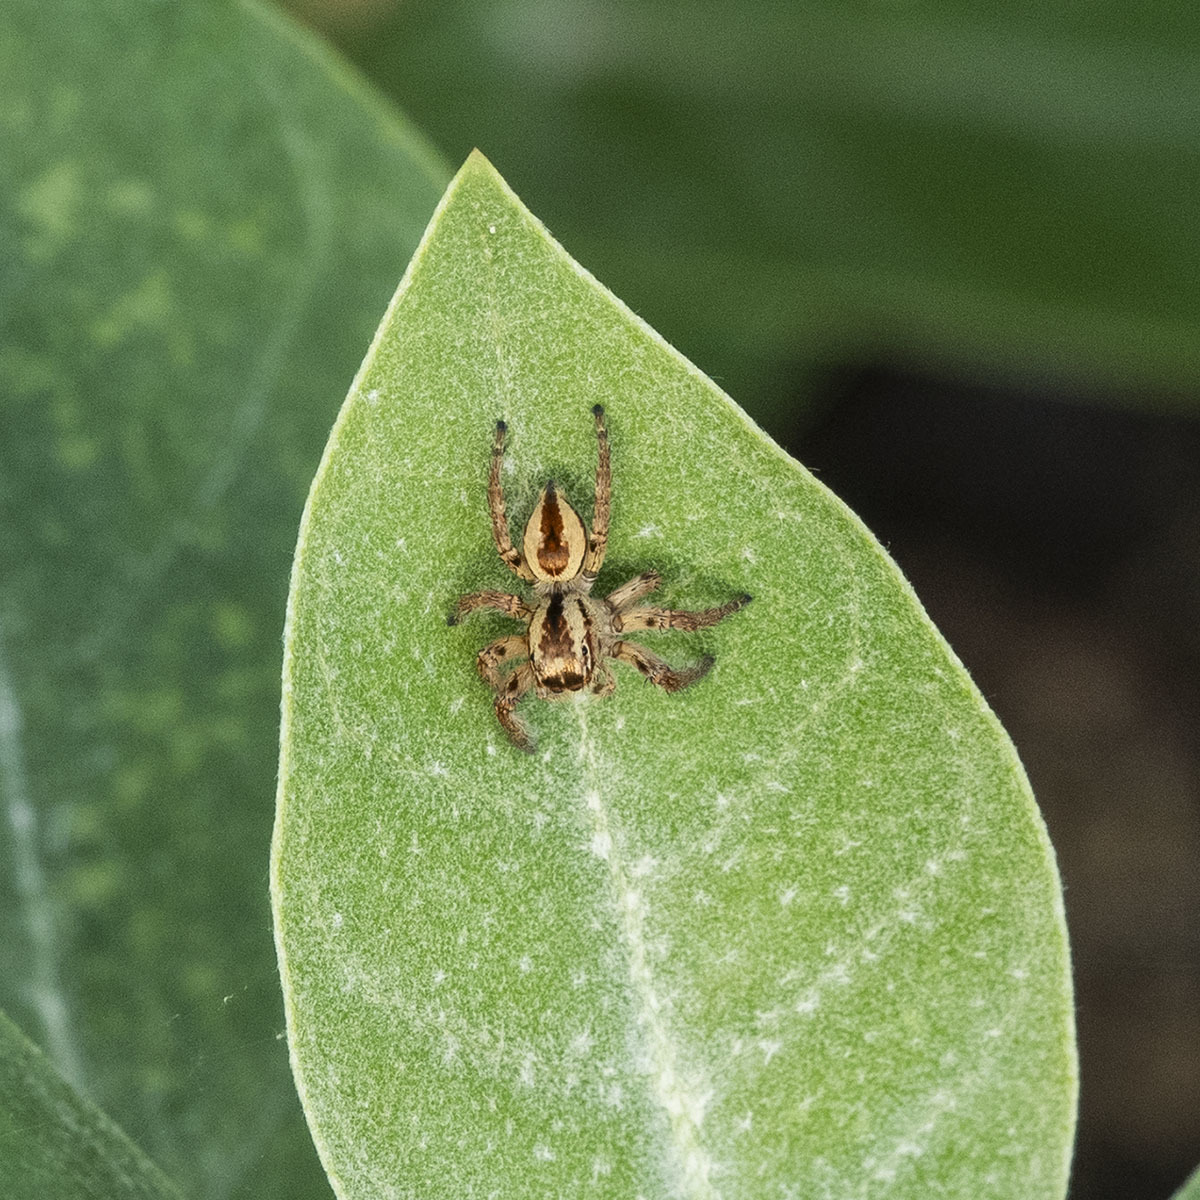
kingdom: Animalia
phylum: Arthropoda
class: Arachnida
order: Araneae
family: Salticidae
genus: Carrhotus
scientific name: Carrhotus viduus
